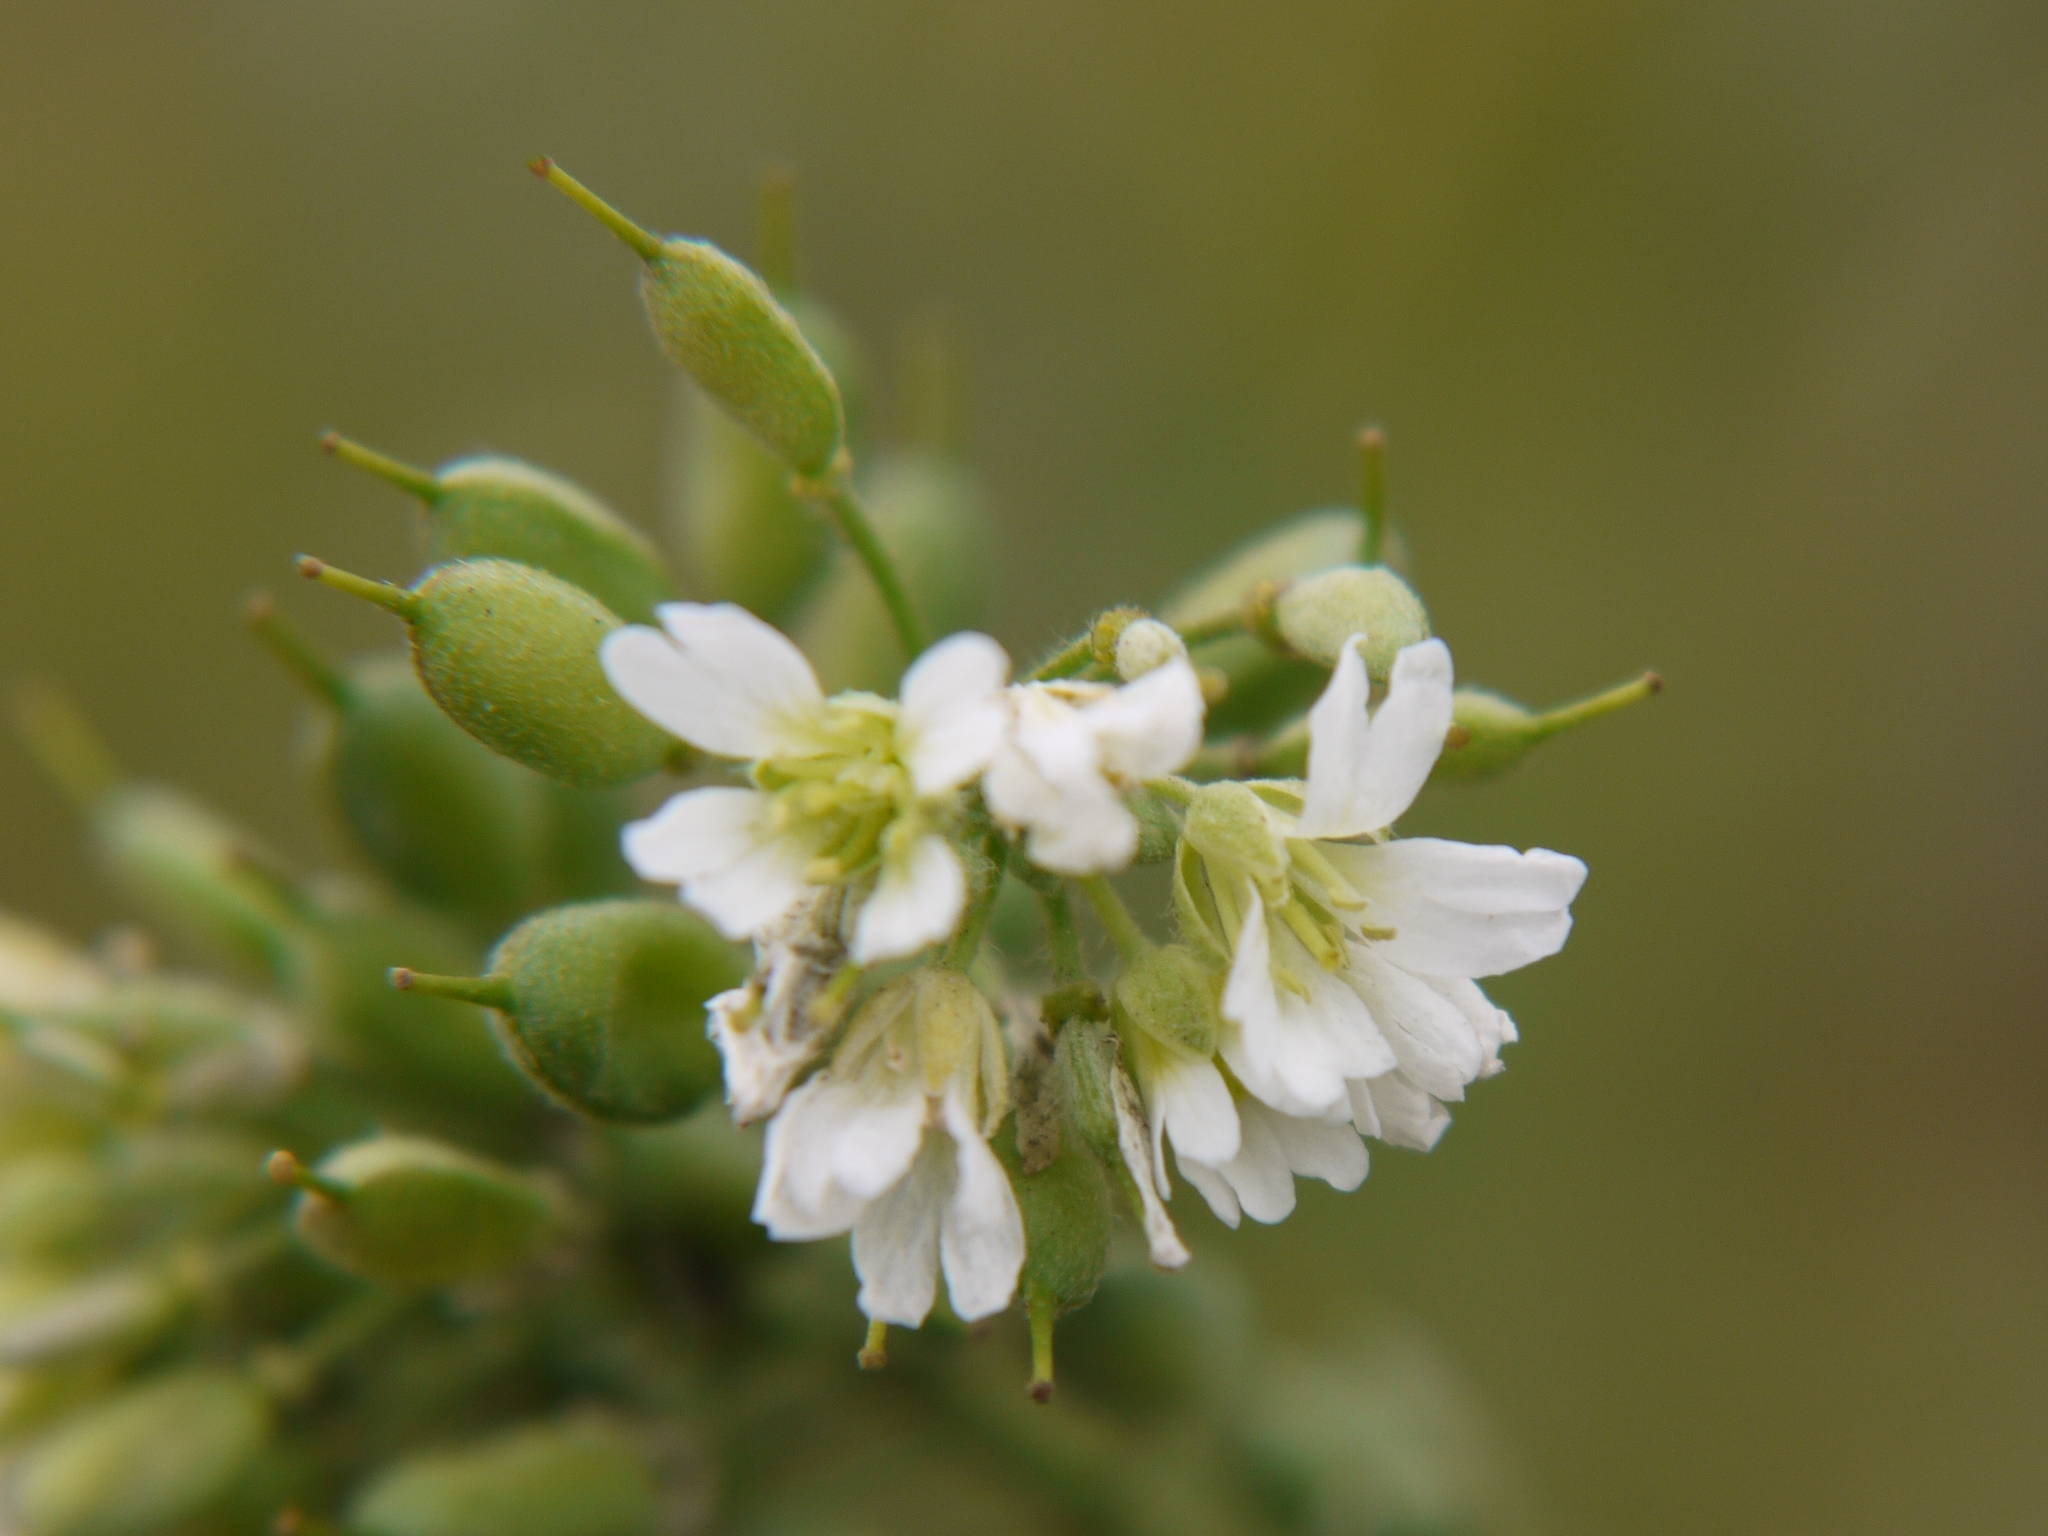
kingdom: Plantae
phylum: Tracheophyta
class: Magnoliopsida
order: Brassicales
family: Brassicaceae
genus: Berteroa
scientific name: Berteroa incana
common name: Hoary alison
